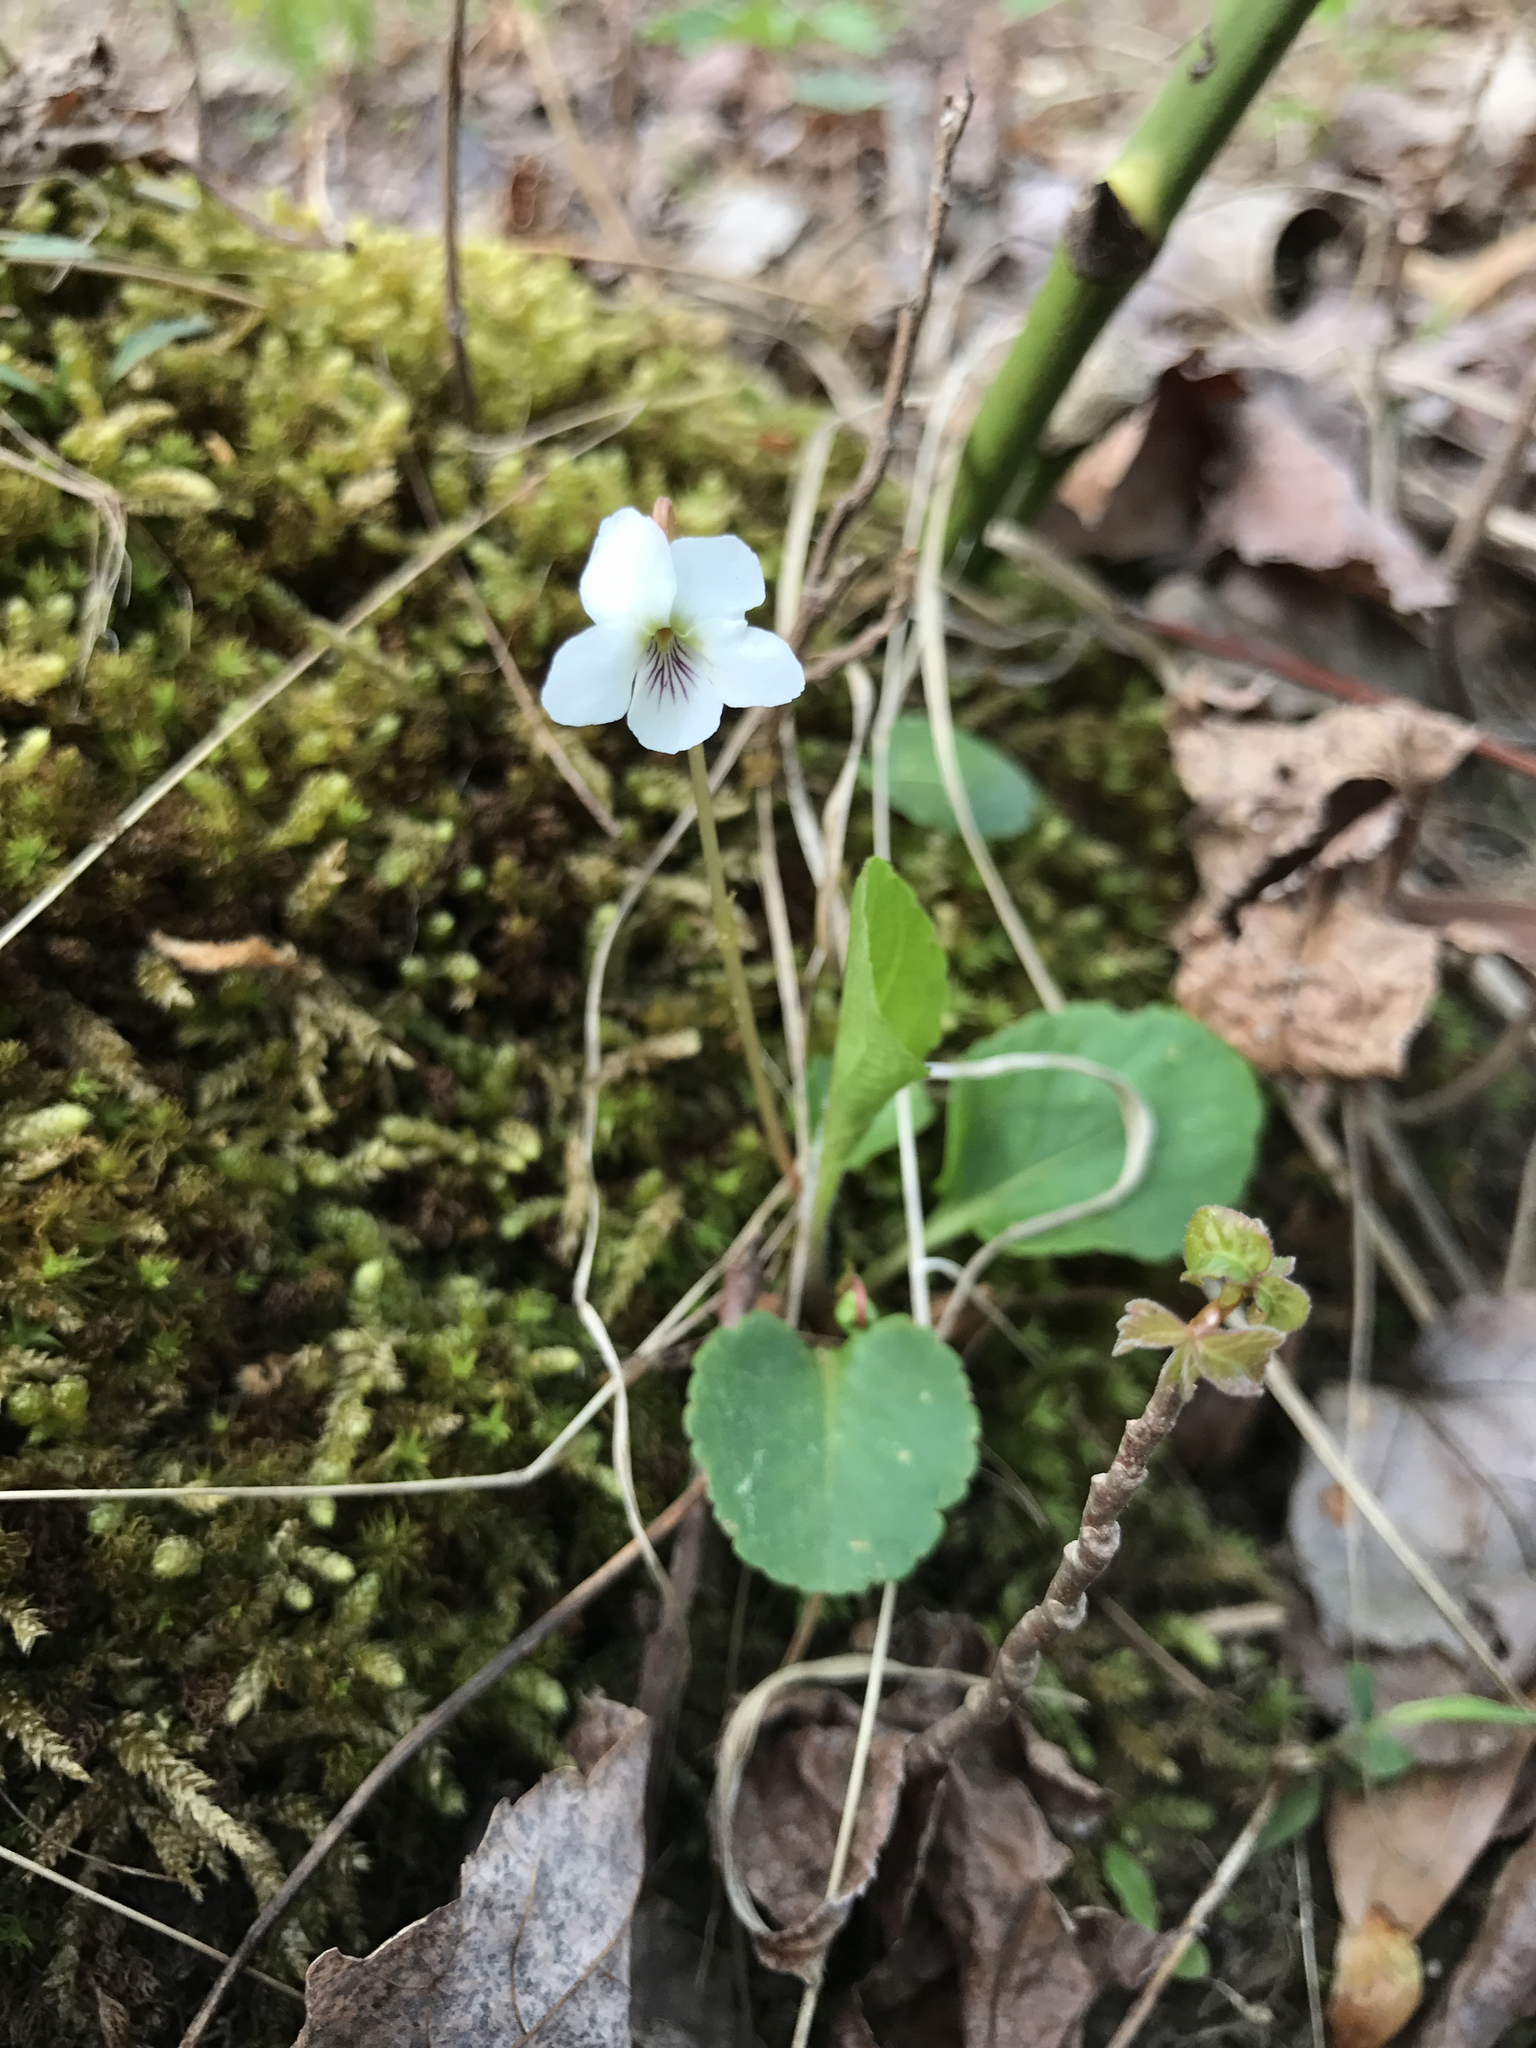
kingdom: Plantae
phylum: Tracheophyta
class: Magnoliopsida
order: Malpighiales
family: Violaceae
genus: Viola
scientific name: Viola primulifolia
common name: Primrose-leaf violet
